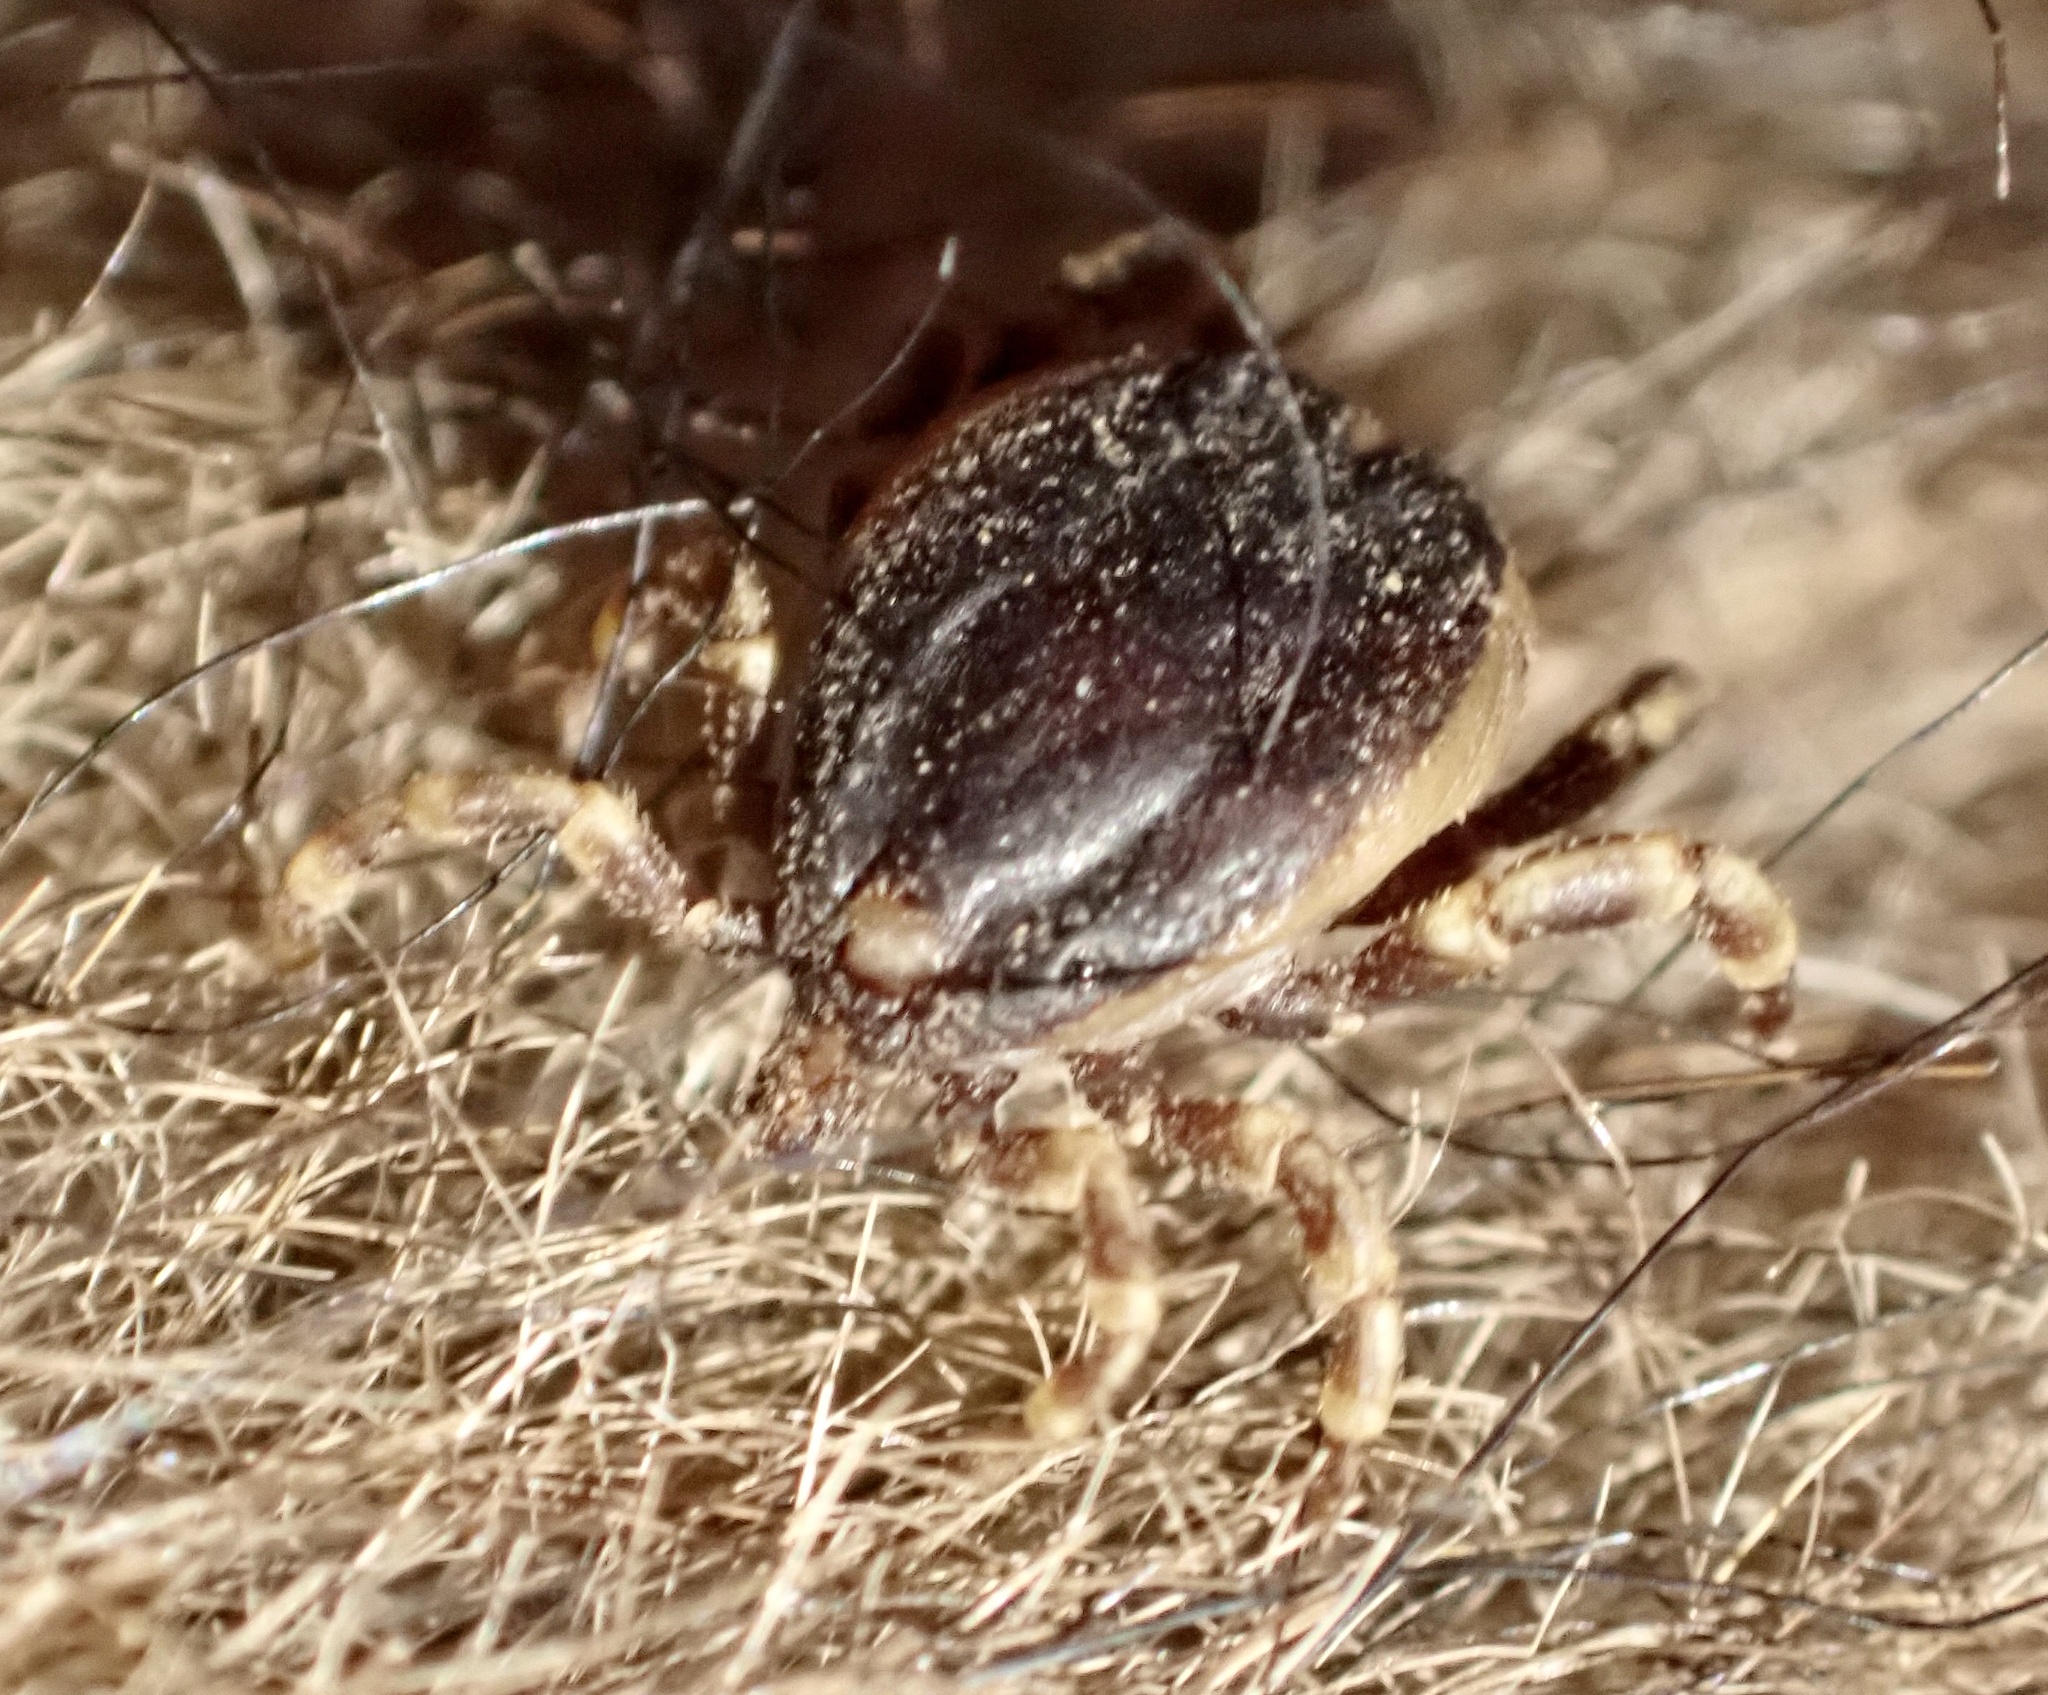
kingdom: Animalia
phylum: Arthropoda
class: Arachnida
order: Ixodida
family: Ixodidae
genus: Hyalomma
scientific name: Hyalomma dromedarii
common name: Camel hyalomma
